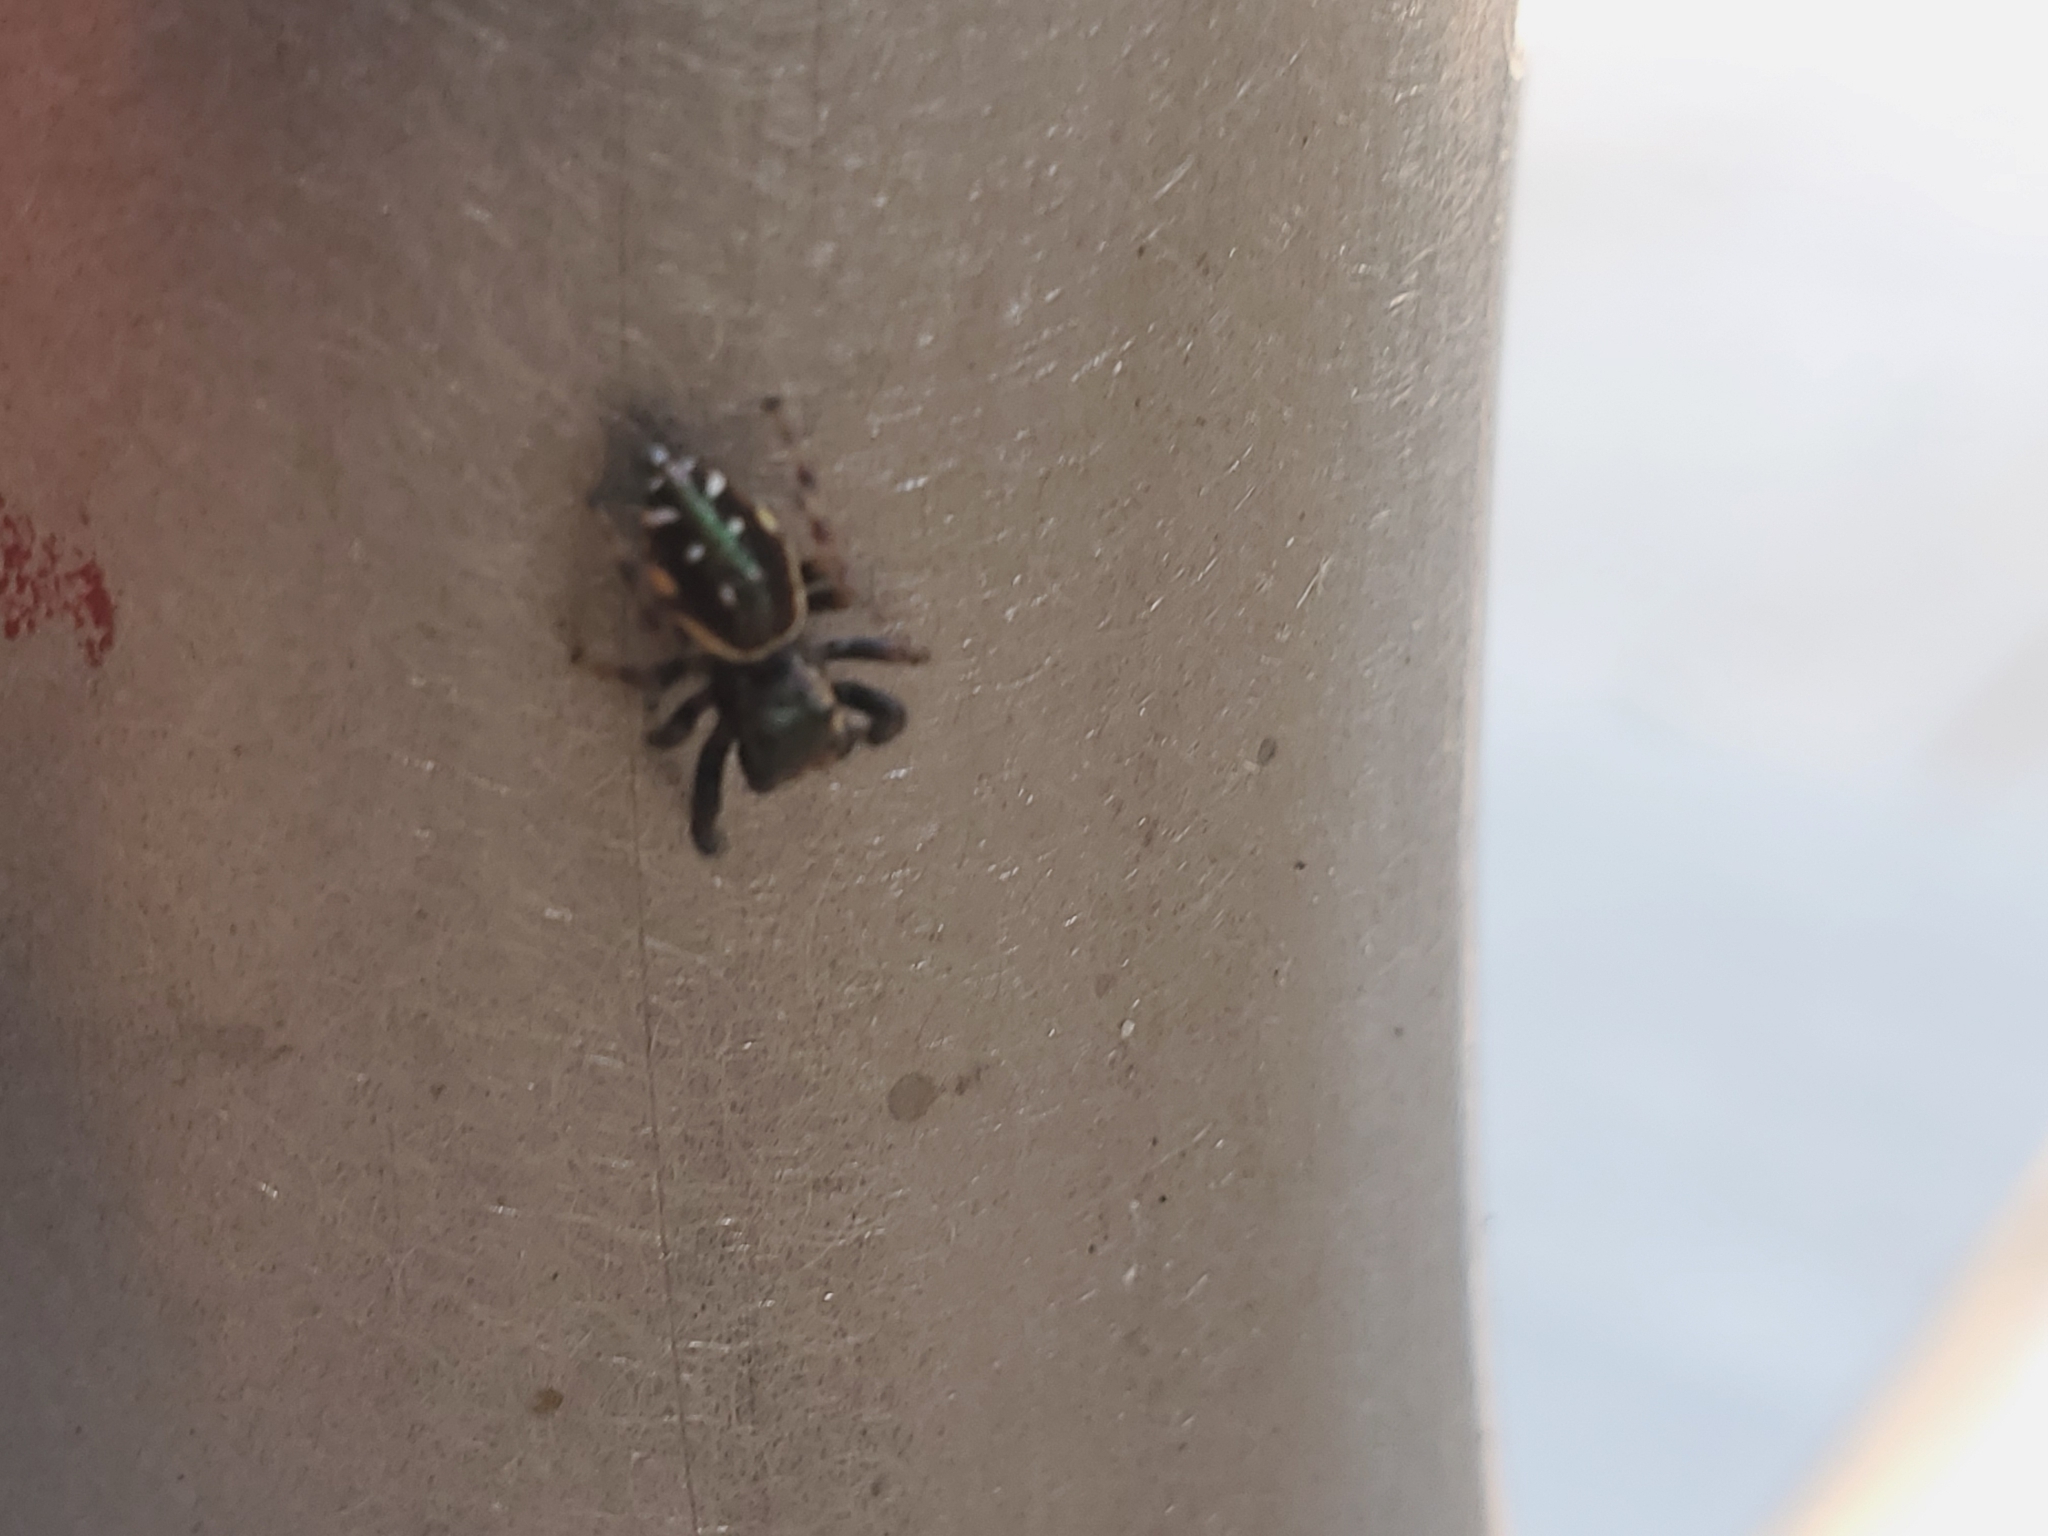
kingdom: Animalia
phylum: Arthropoda
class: Arachnida
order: Araneae
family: Salticidae
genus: Paraphidippus
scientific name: Paraphidippus aurantius
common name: Jumping spiders
